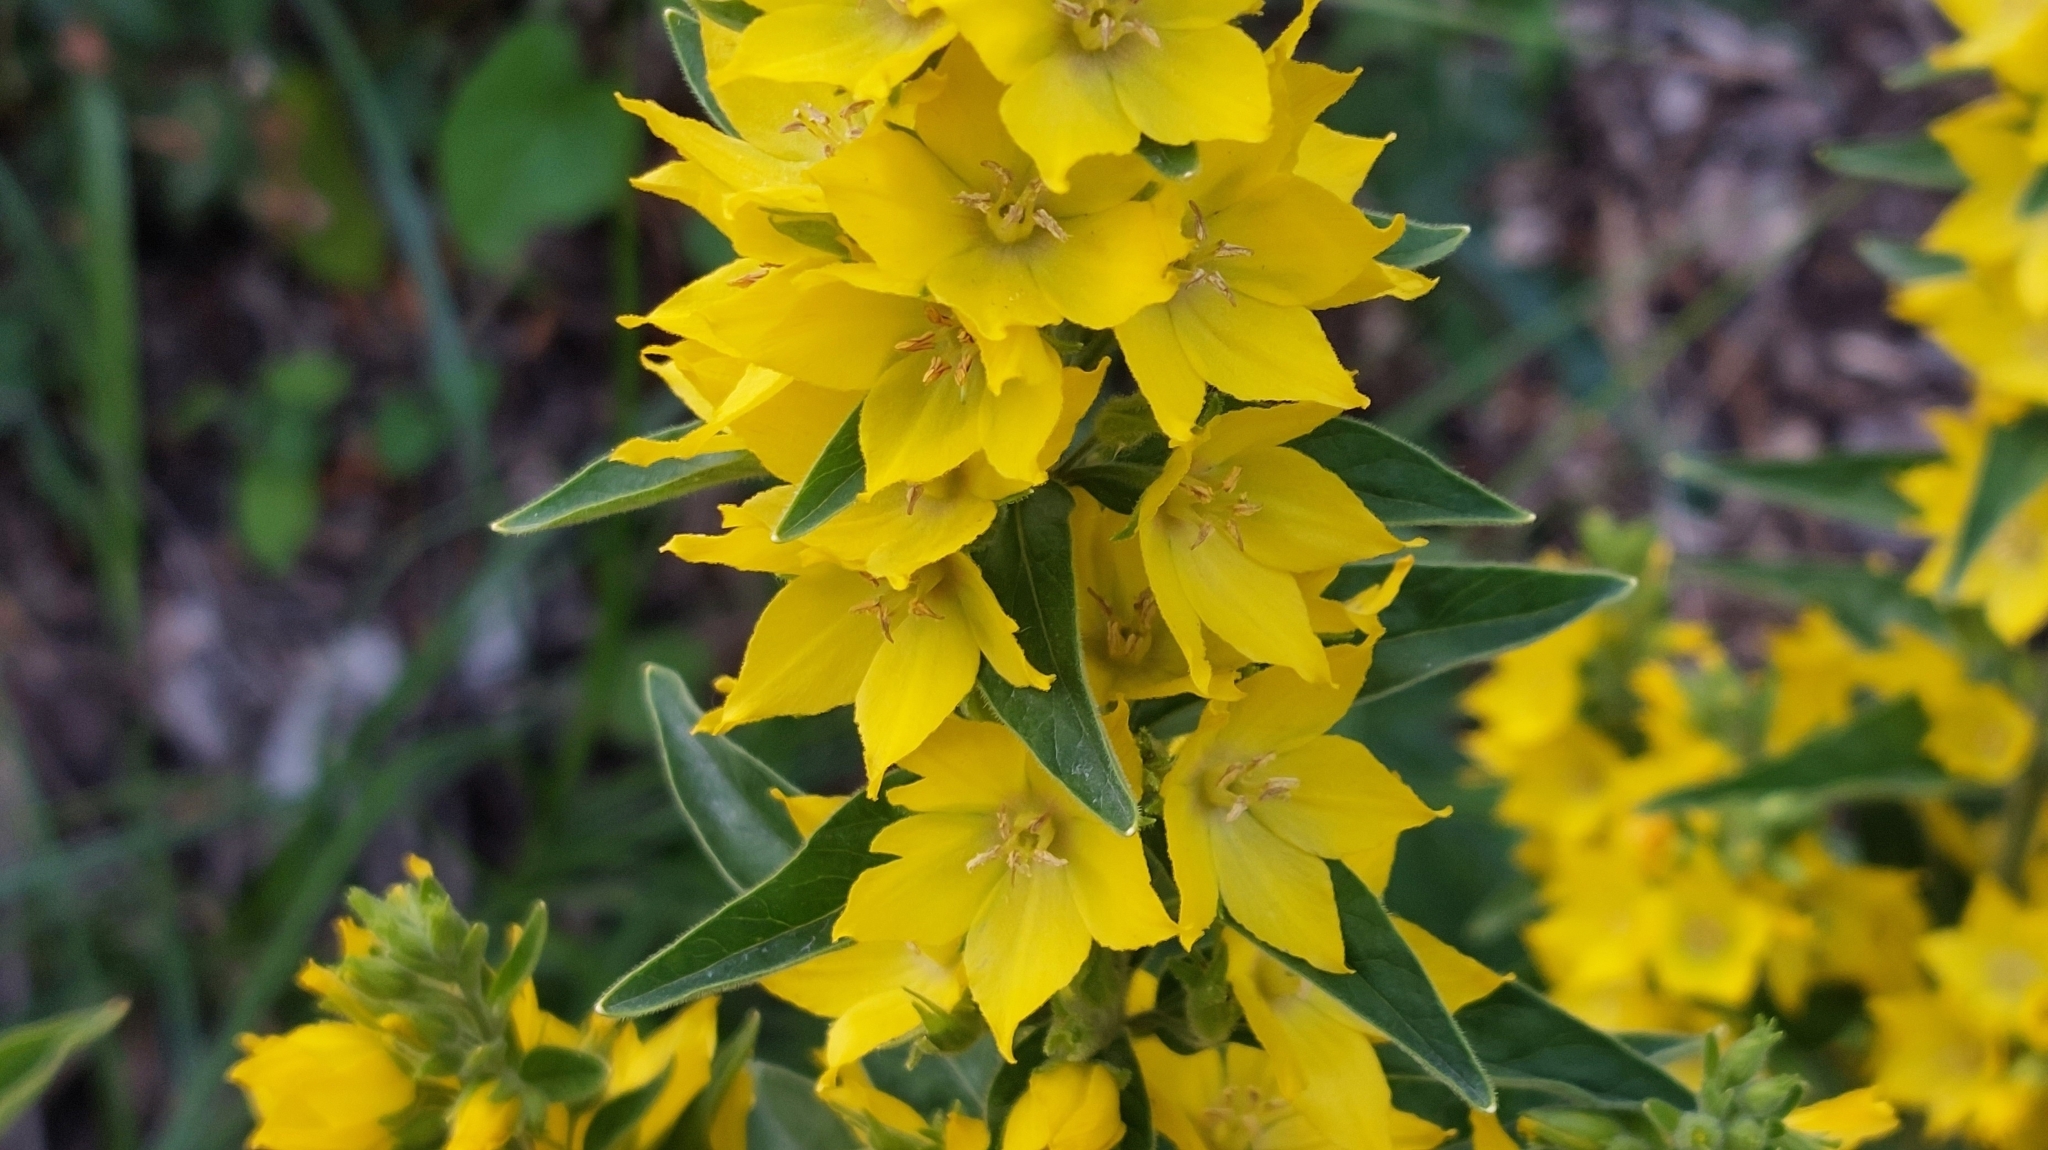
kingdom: Plantae
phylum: Tracheophyta
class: Magnoliopsida
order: Ericales
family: Primulaceae
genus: Lysimachia
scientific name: Lysimachia punctata
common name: Dotted loosestrife
